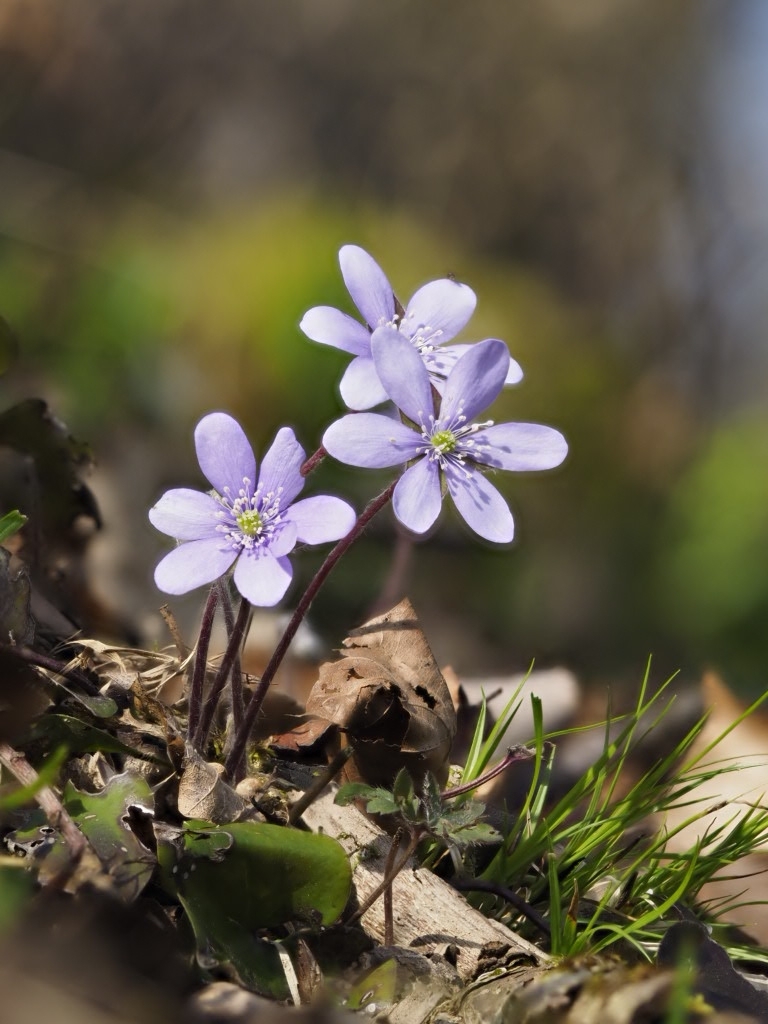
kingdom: Plantae
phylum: Tracheophyta
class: Magnoliopsida
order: Ranunculales
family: Ranunculaceae
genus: Hepatica
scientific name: Hepatica nobilis
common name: Liverleaf
